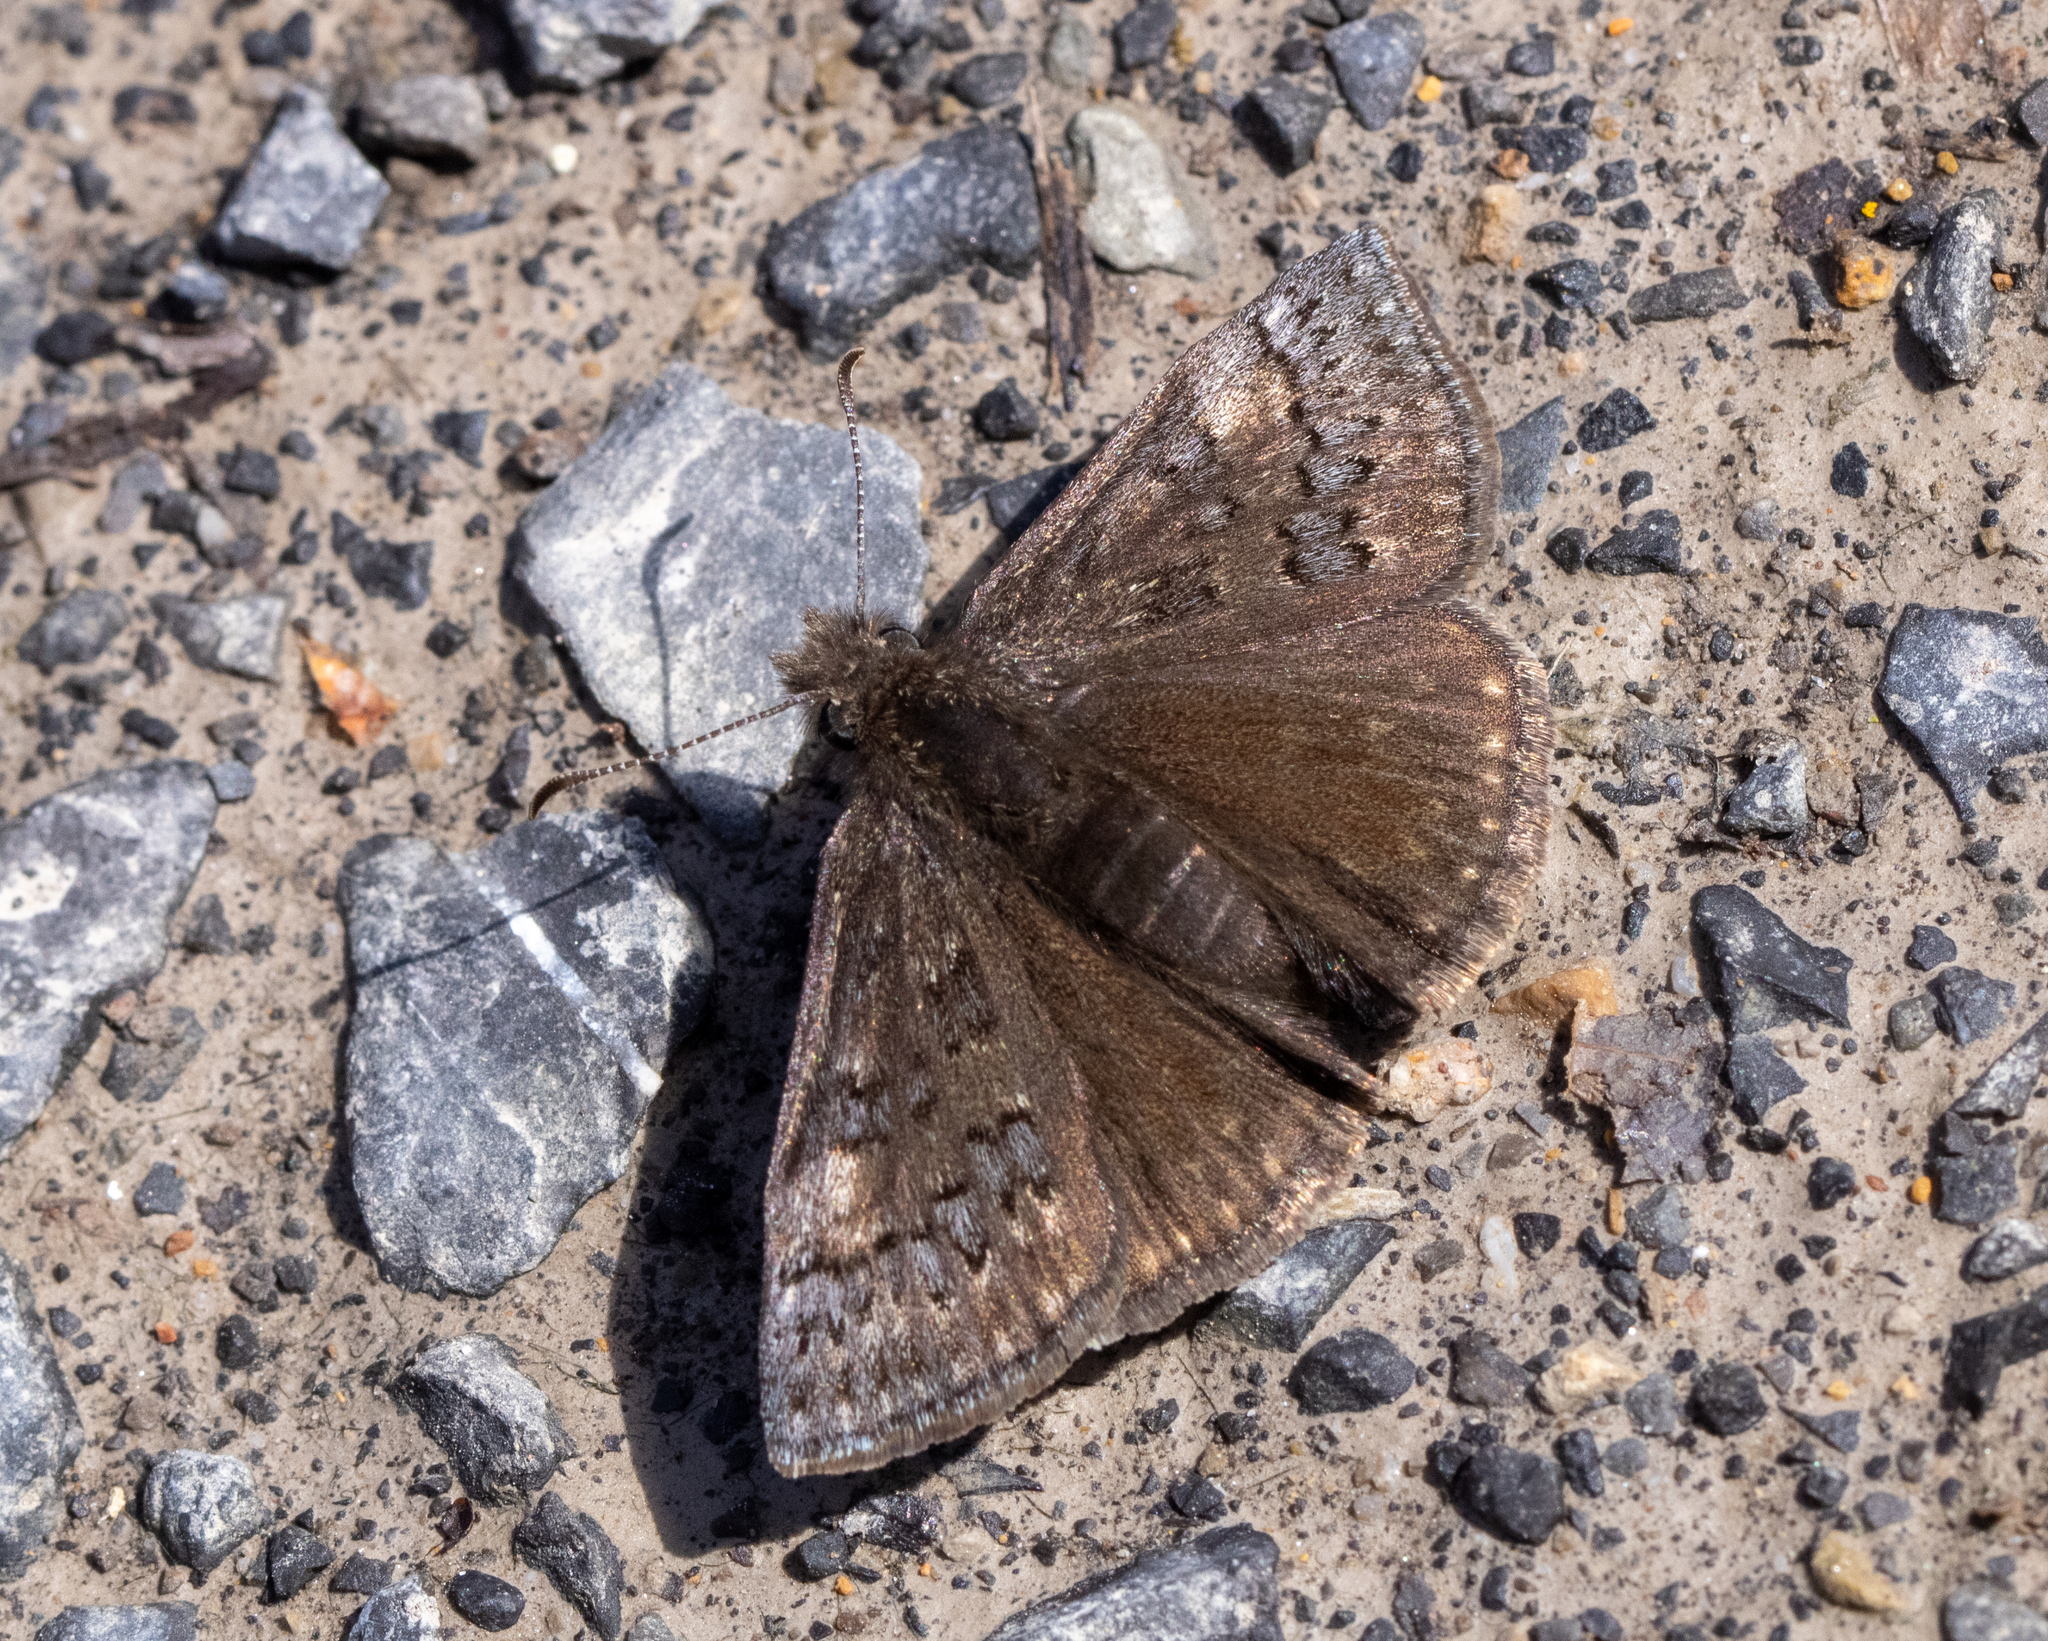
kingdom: Animalia
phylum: Arthropoda
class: Insecta
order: Lepidoptera
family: Hesperiidae
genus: Erynnis
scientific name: Erynnis brizo
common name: Sleepy duskywing
